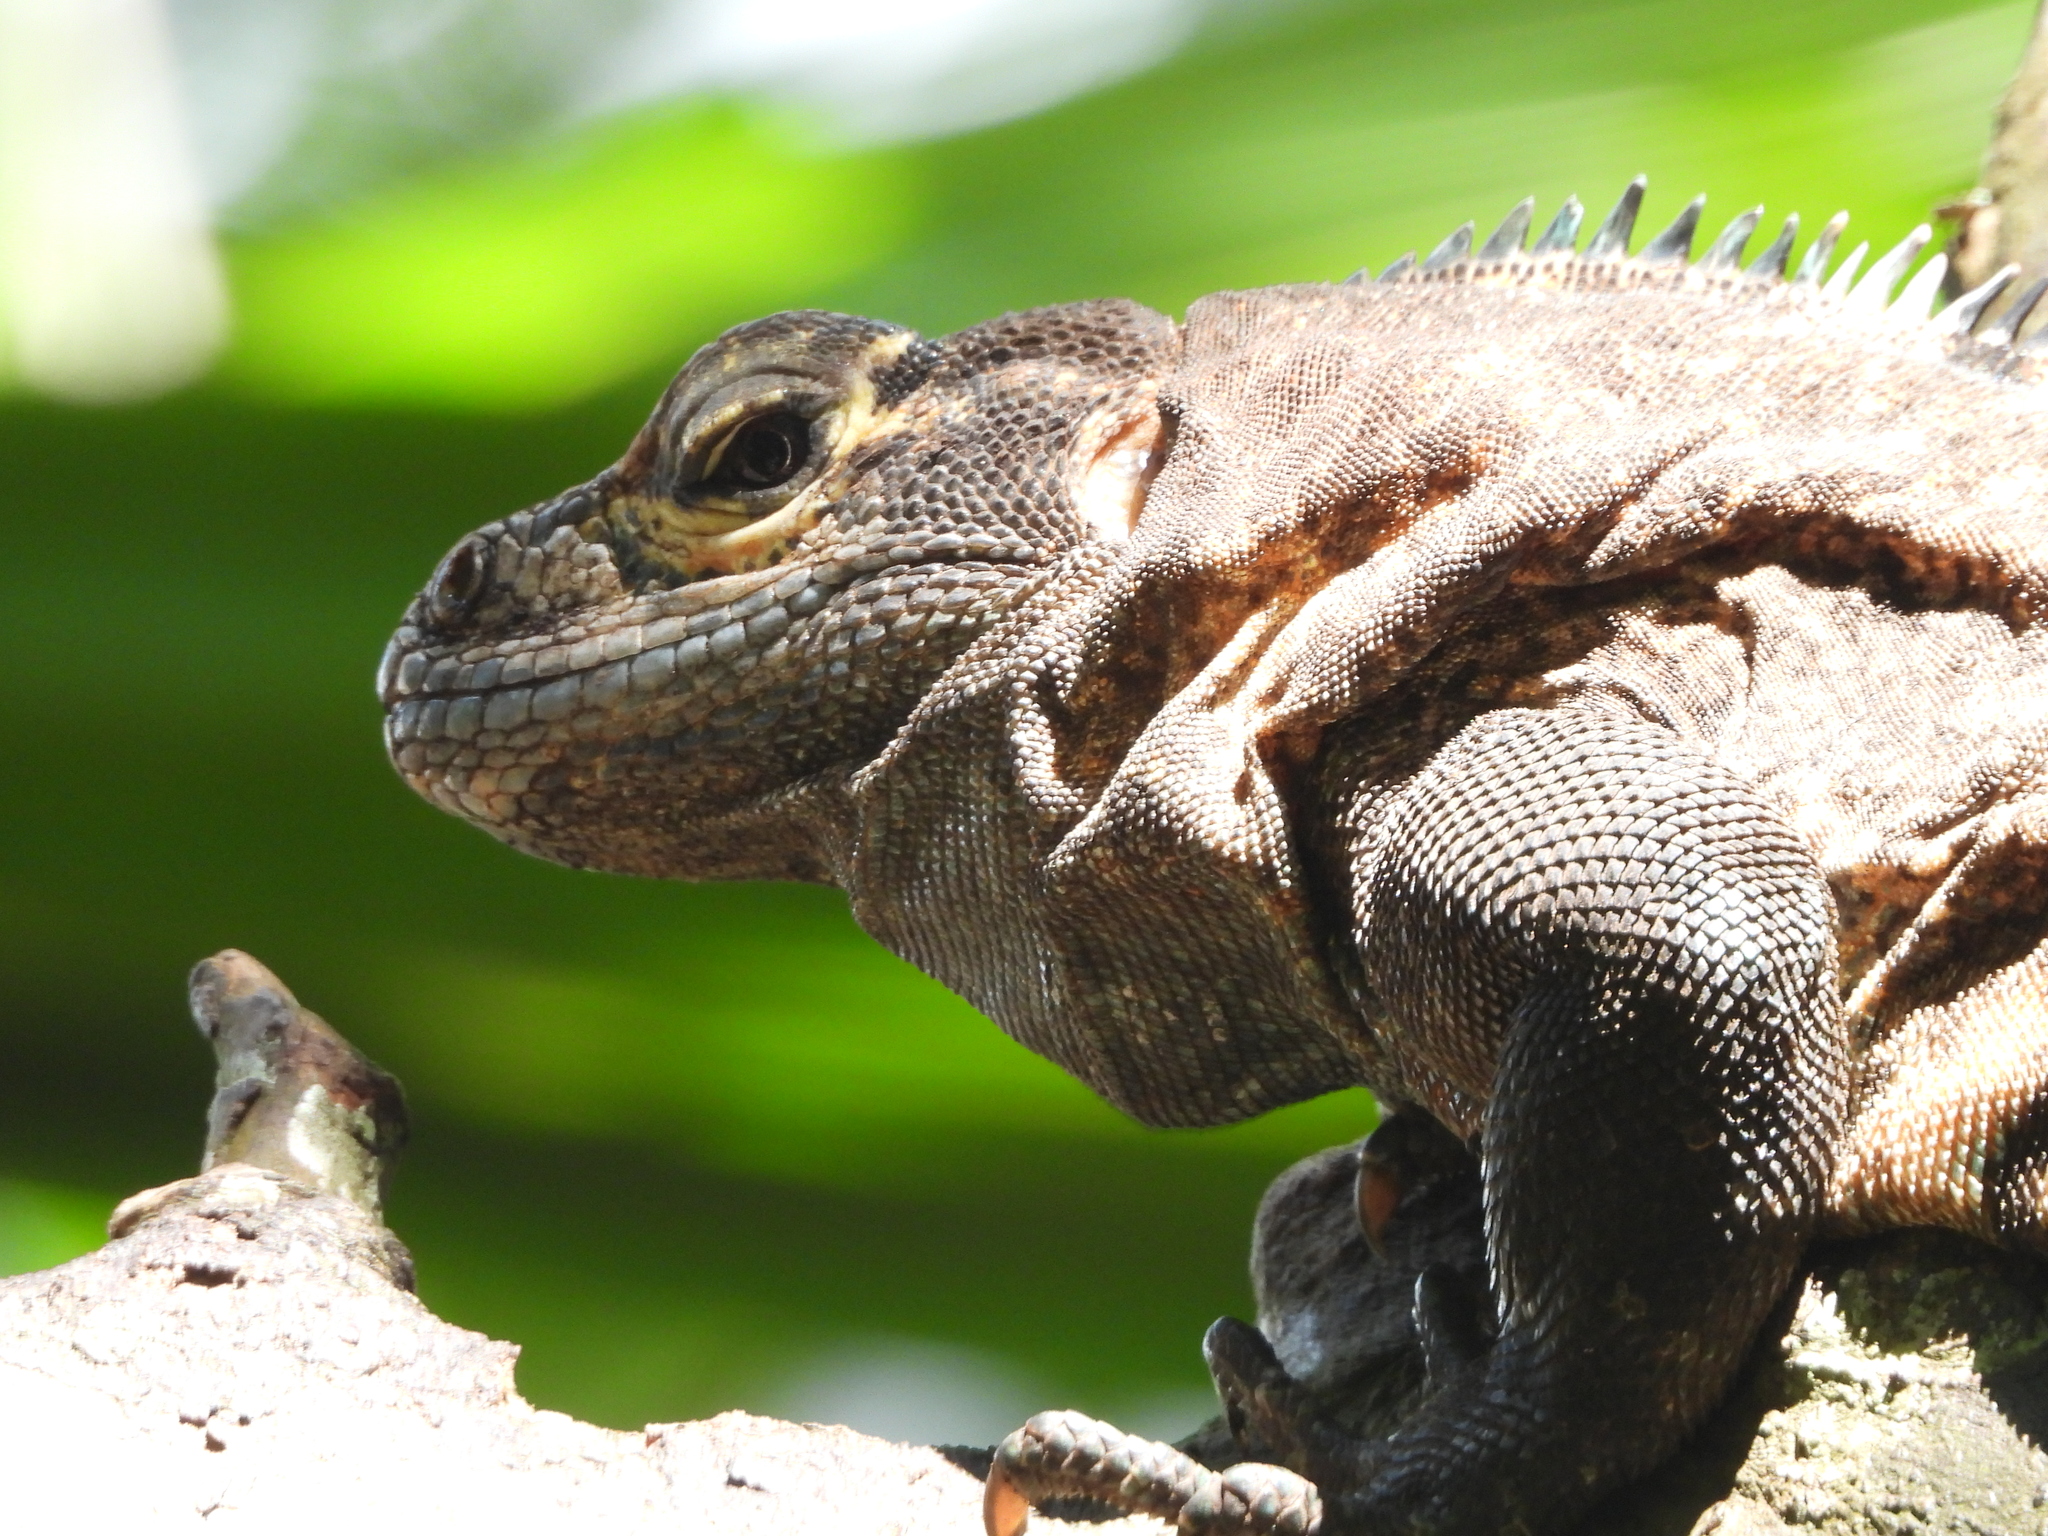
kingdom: Animalia
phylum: Chordata
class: Squamata
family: Iguanidae
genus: Ctenosaura
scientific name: Ctenosaura similis
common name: Black spiny-tailed iguana
